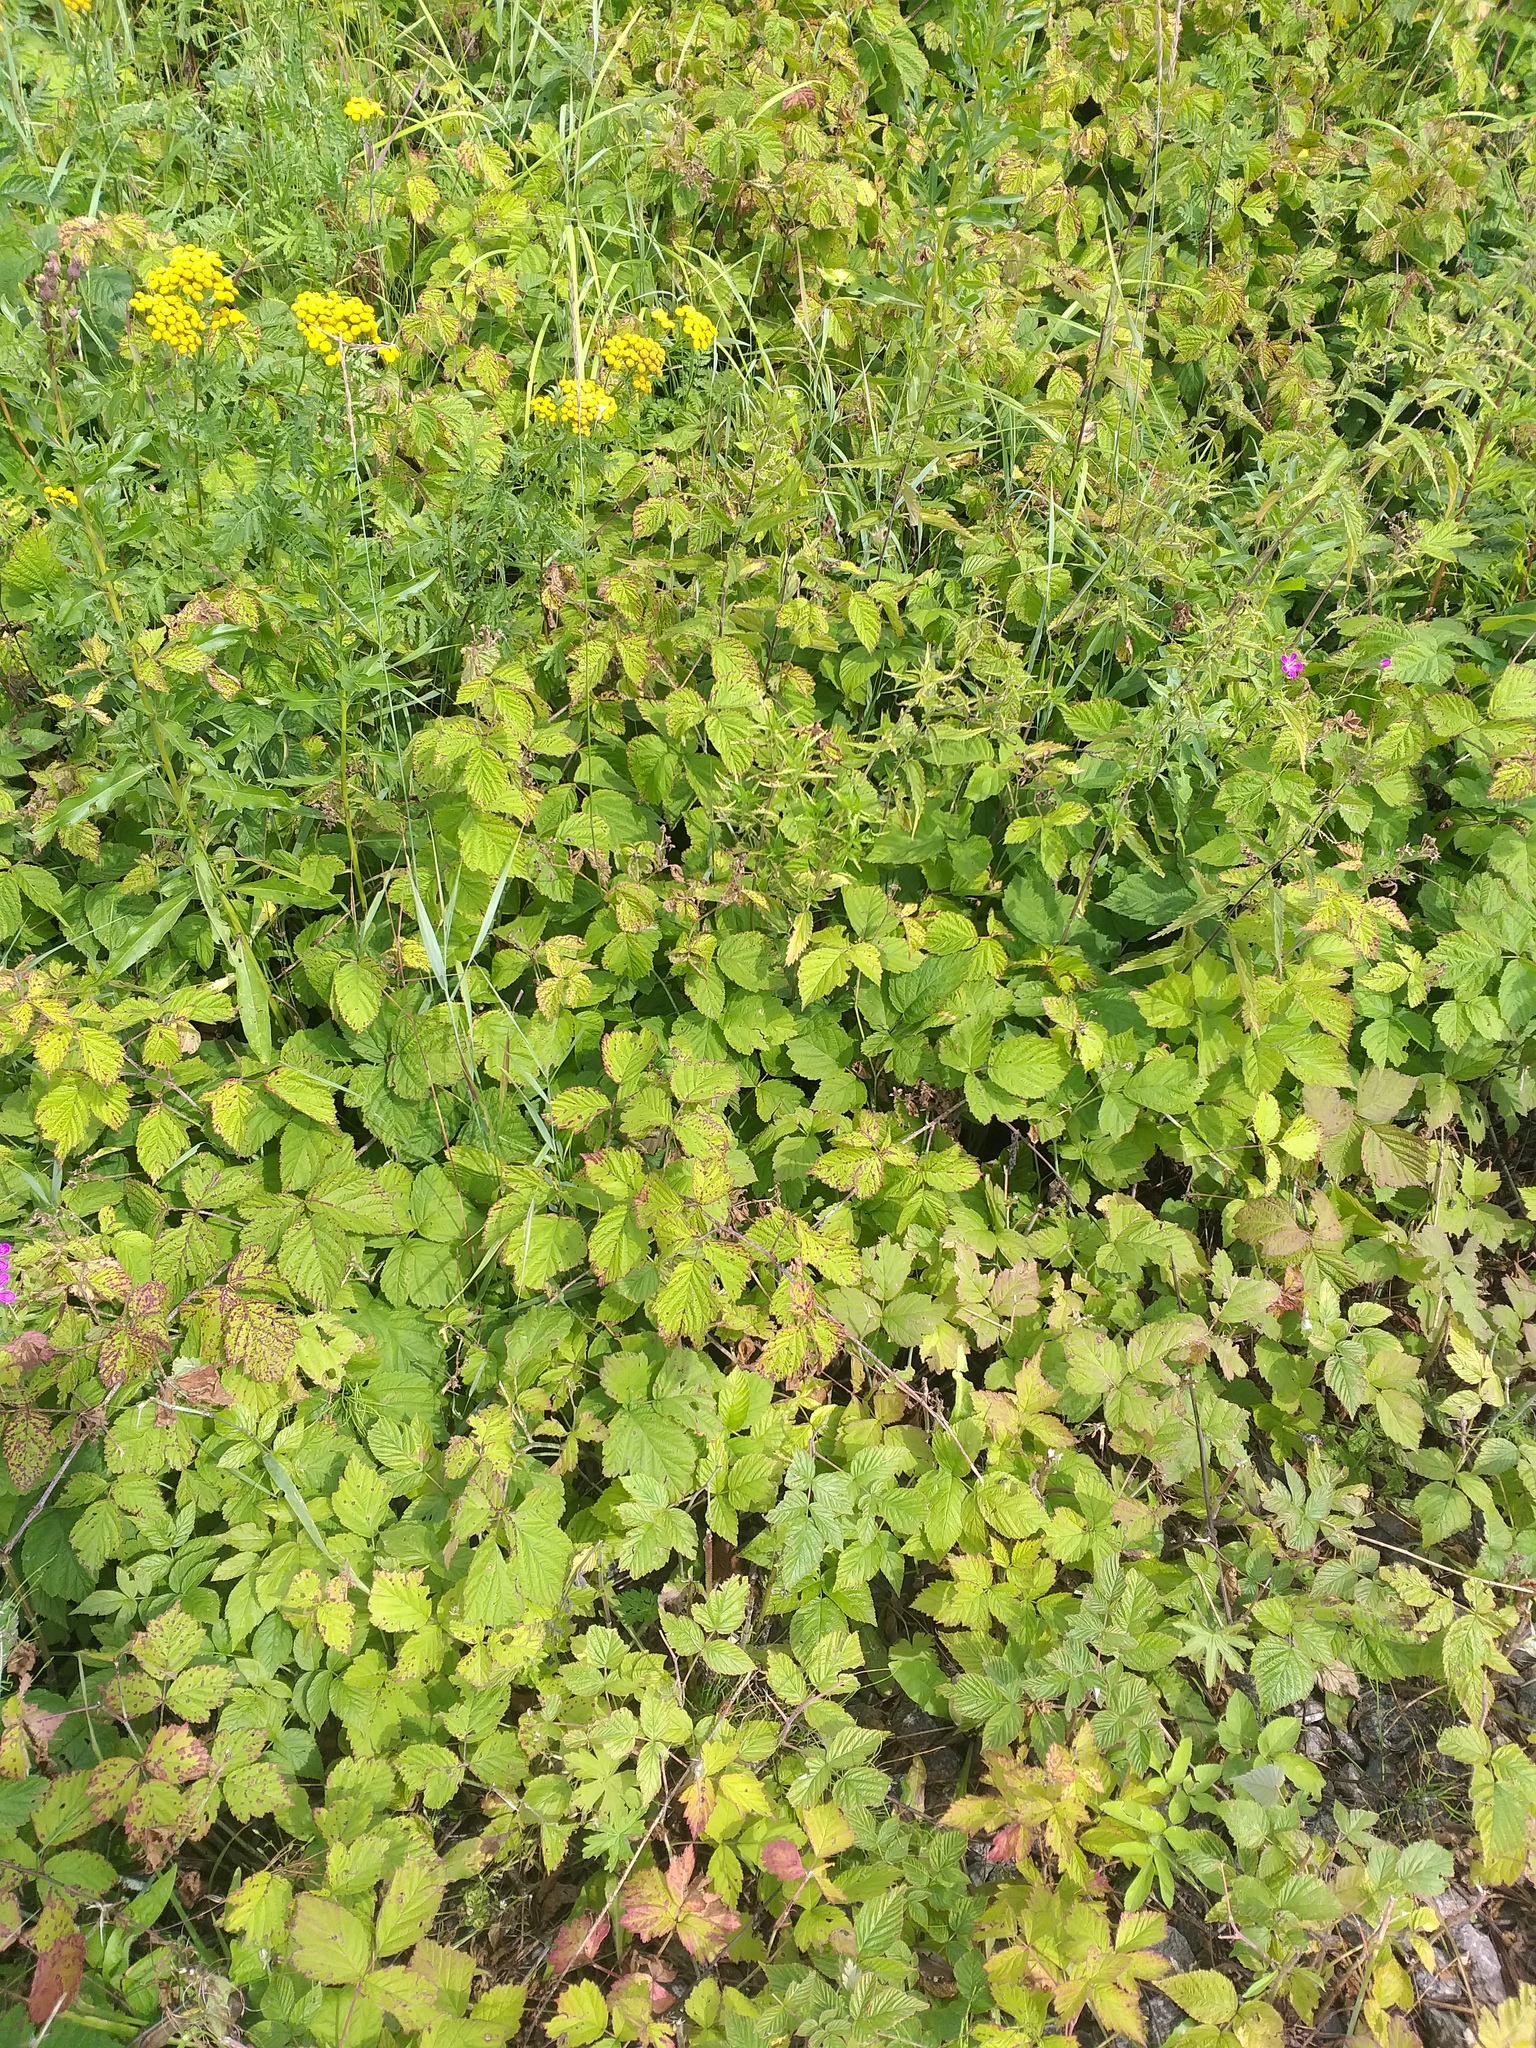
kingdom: Plantae
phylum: Tracheophyta
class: Magnoliopsida
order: Rosales
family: Rosaceae
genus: Rubus
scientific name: Rubus caesius
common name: Dewberry
